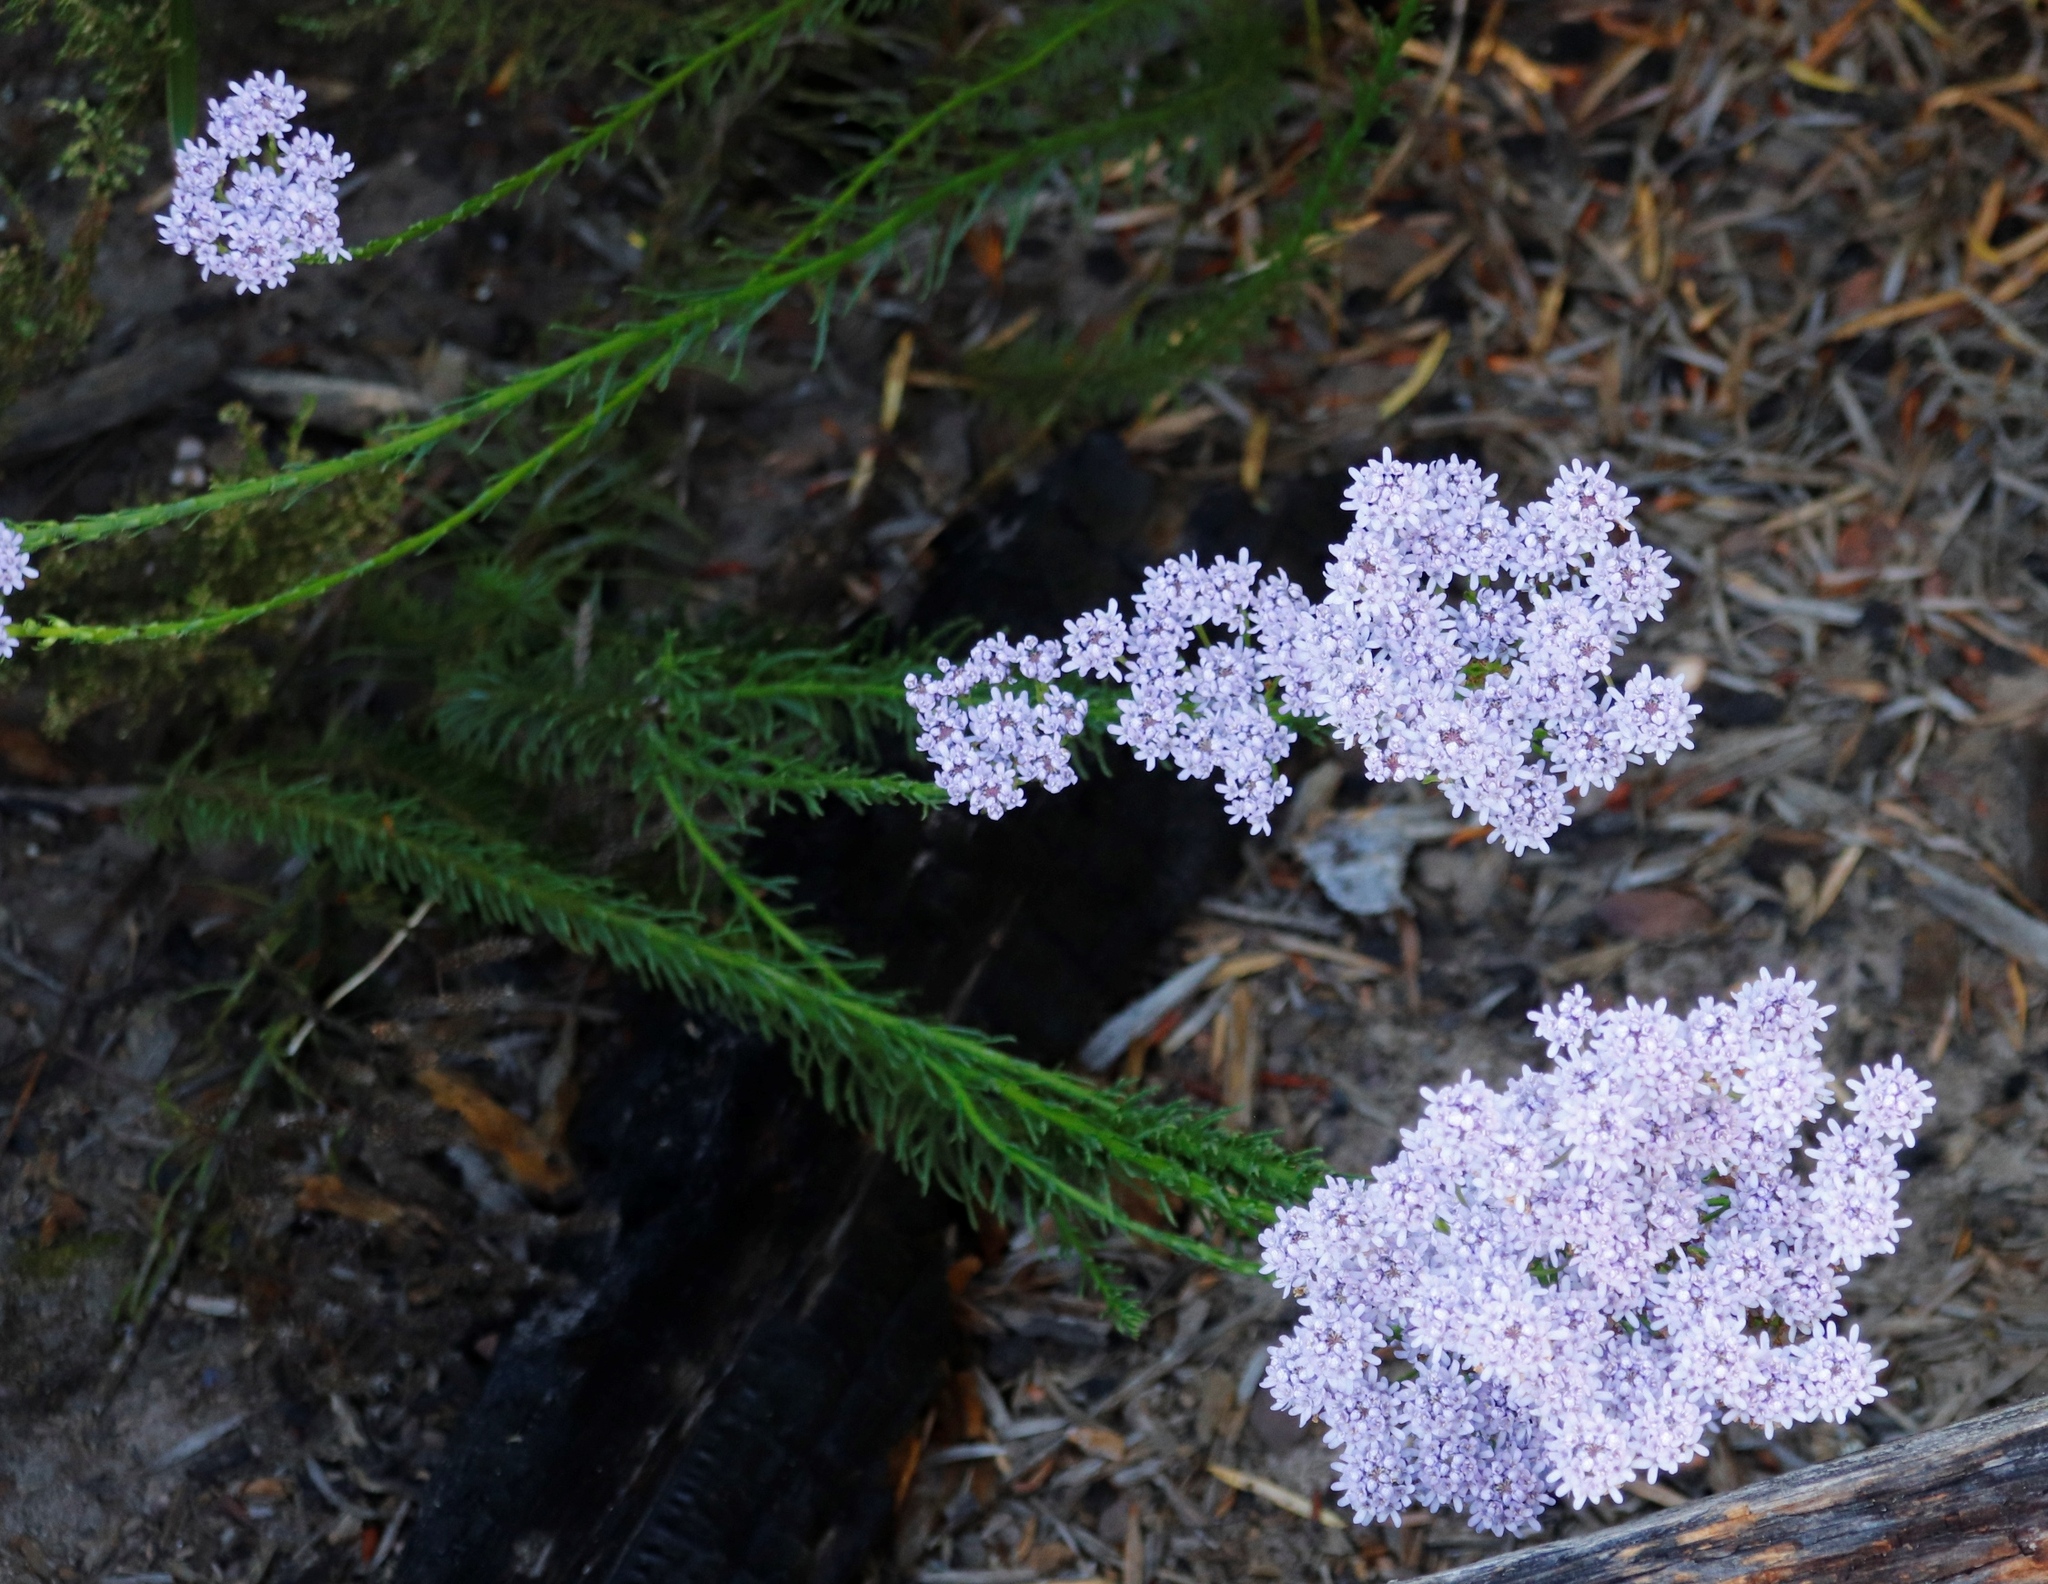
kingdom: Plantae
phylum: Tracheophyta
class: Magnoliopsida
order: Lamiales
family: Scrophulariaceae
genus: Pseudoselago
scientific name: Pseudoselago spuria
